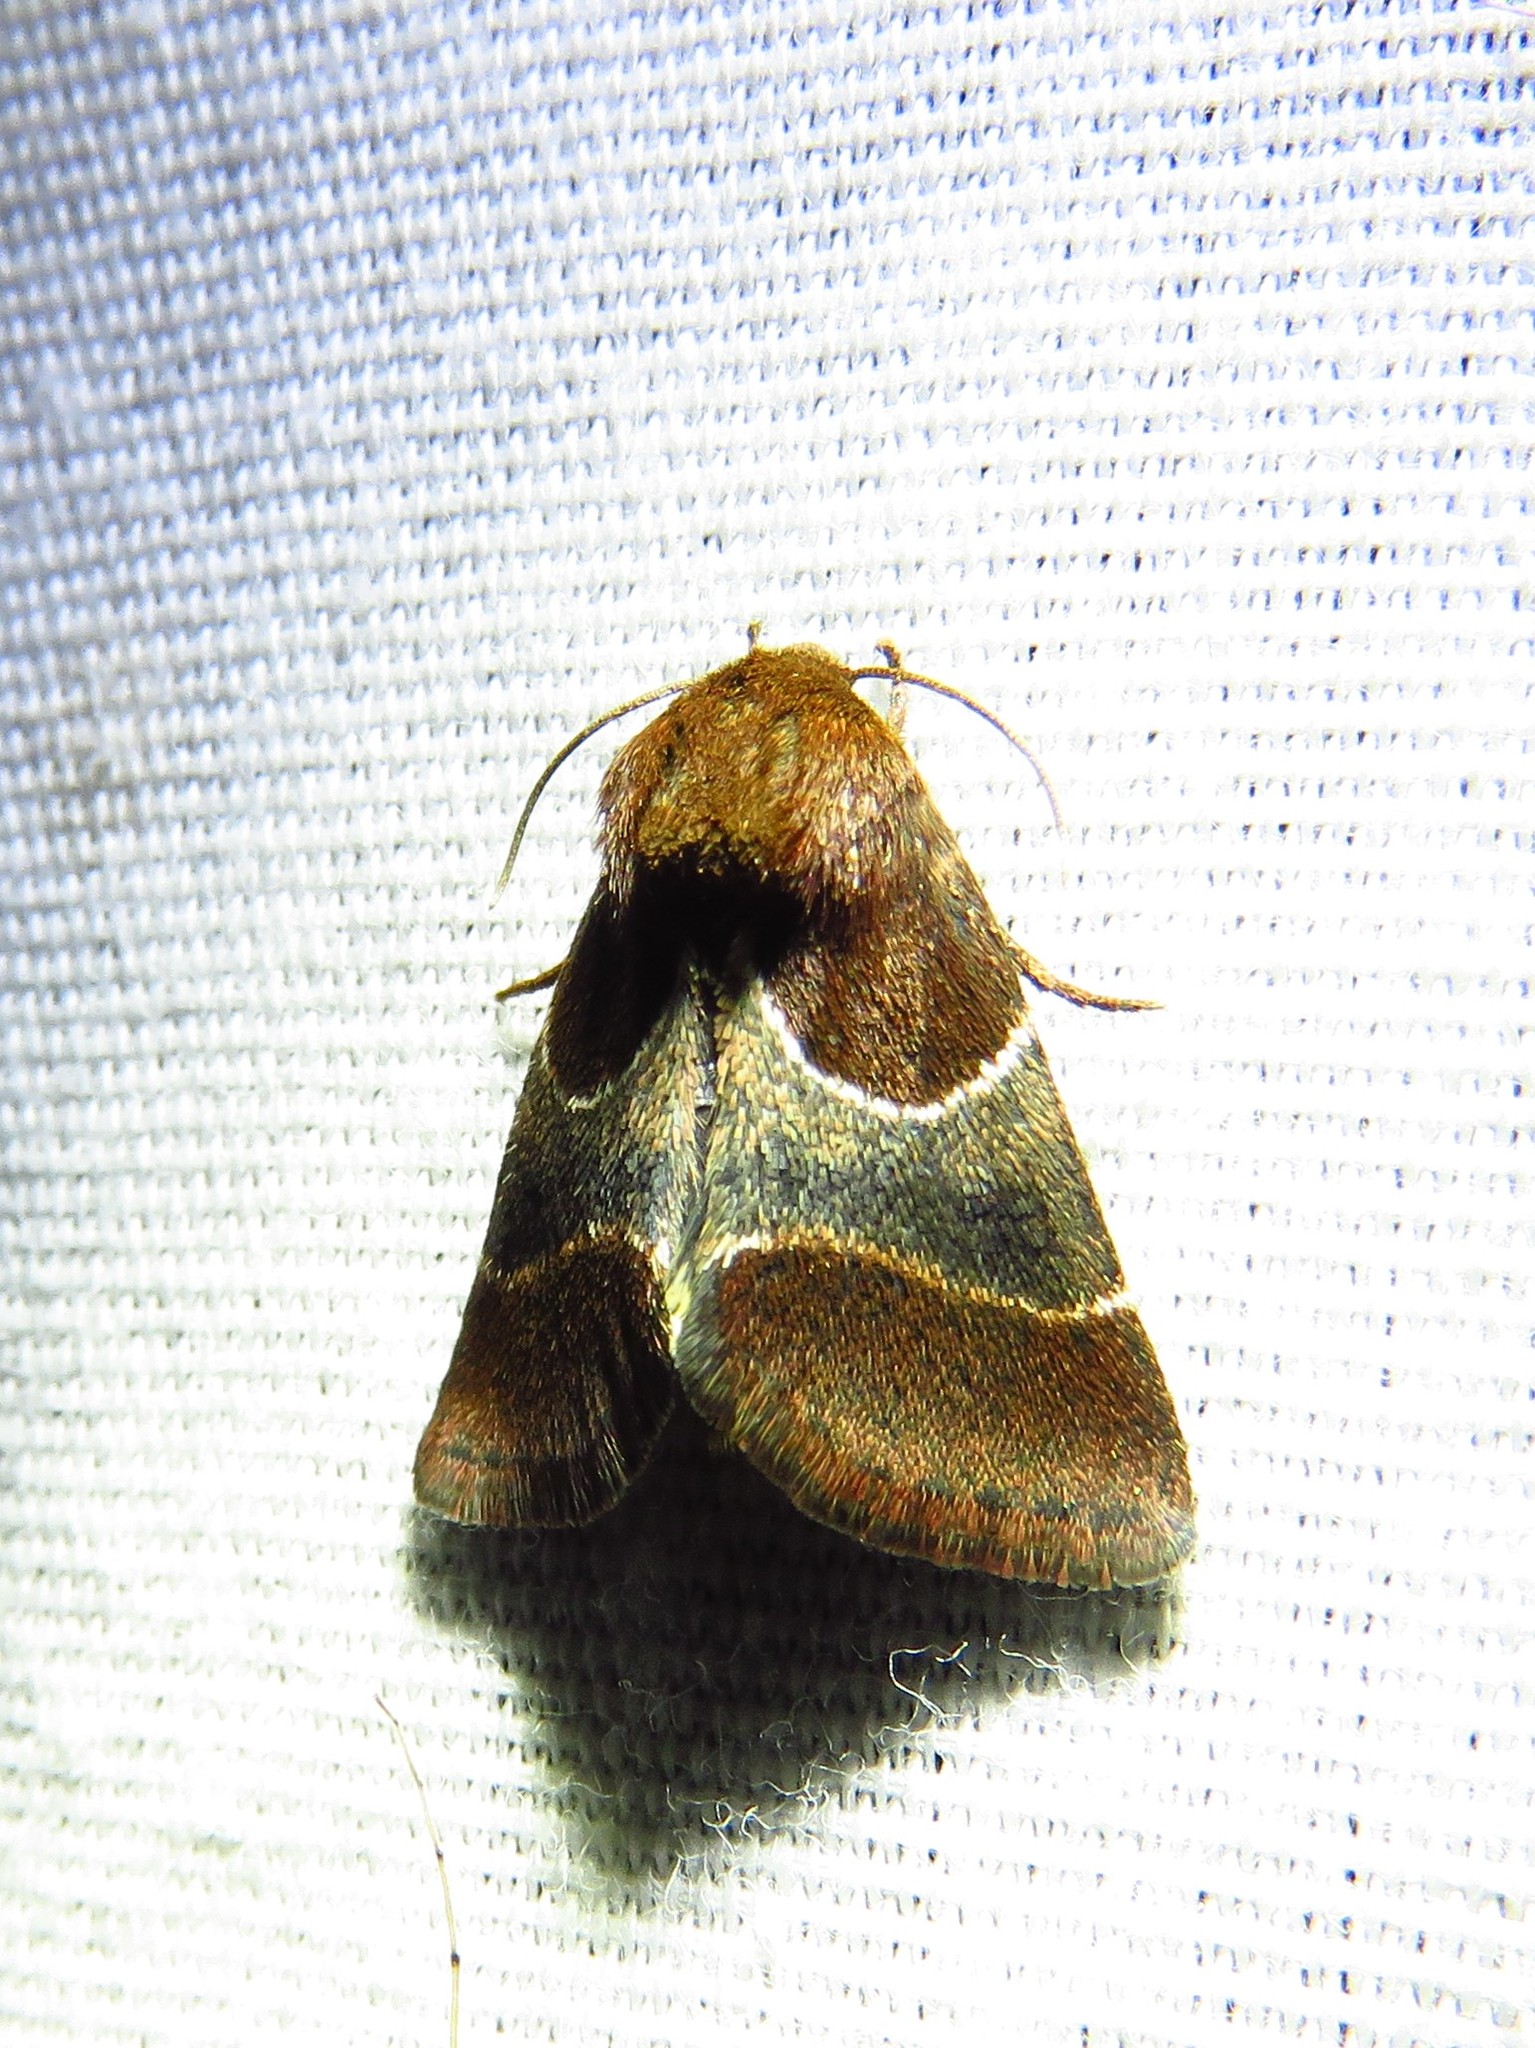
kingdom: Animalia
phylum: Arthropoda
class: Insecta
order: Lepidoptera
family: Noctuidae
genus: Schinia
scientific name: Schinia arcigera
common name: Arcigera flower moth
